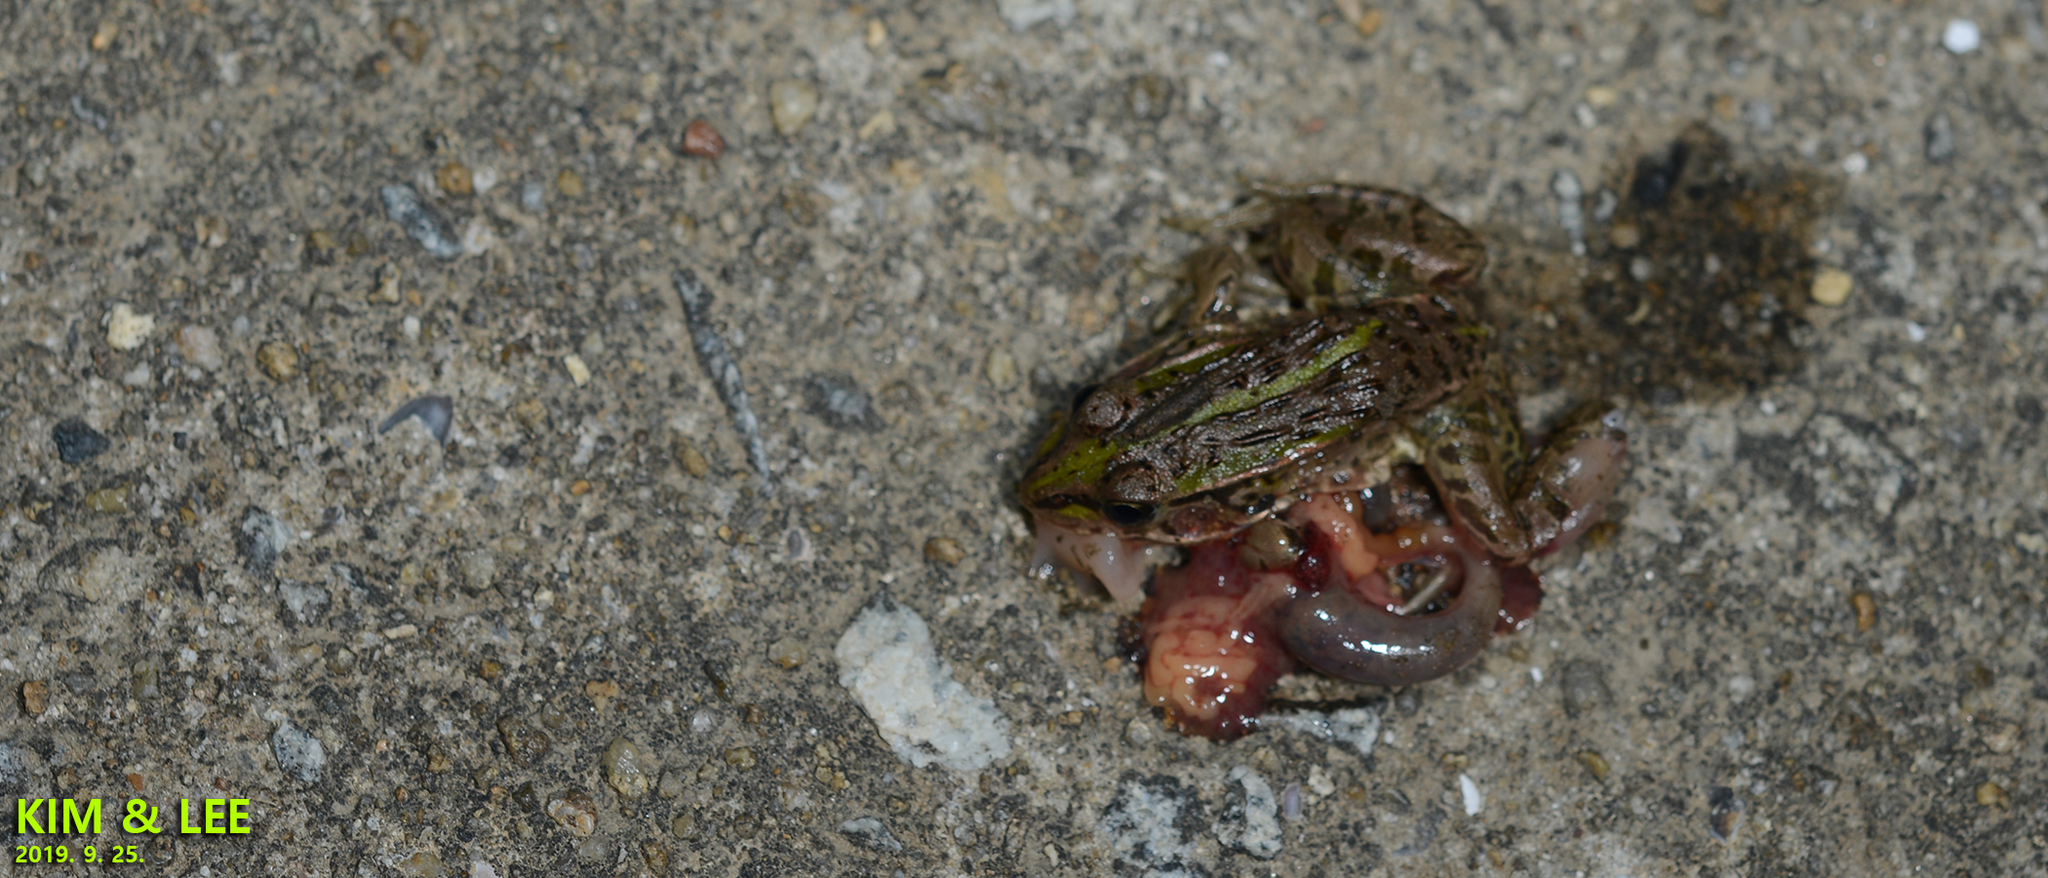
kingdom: Animalia
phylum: Chordata
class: Amphibia
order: Anura
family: Ranidae
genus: Pelophylax
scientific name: Pelophylax nigromaculatus
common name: Black-spotted pond frog
